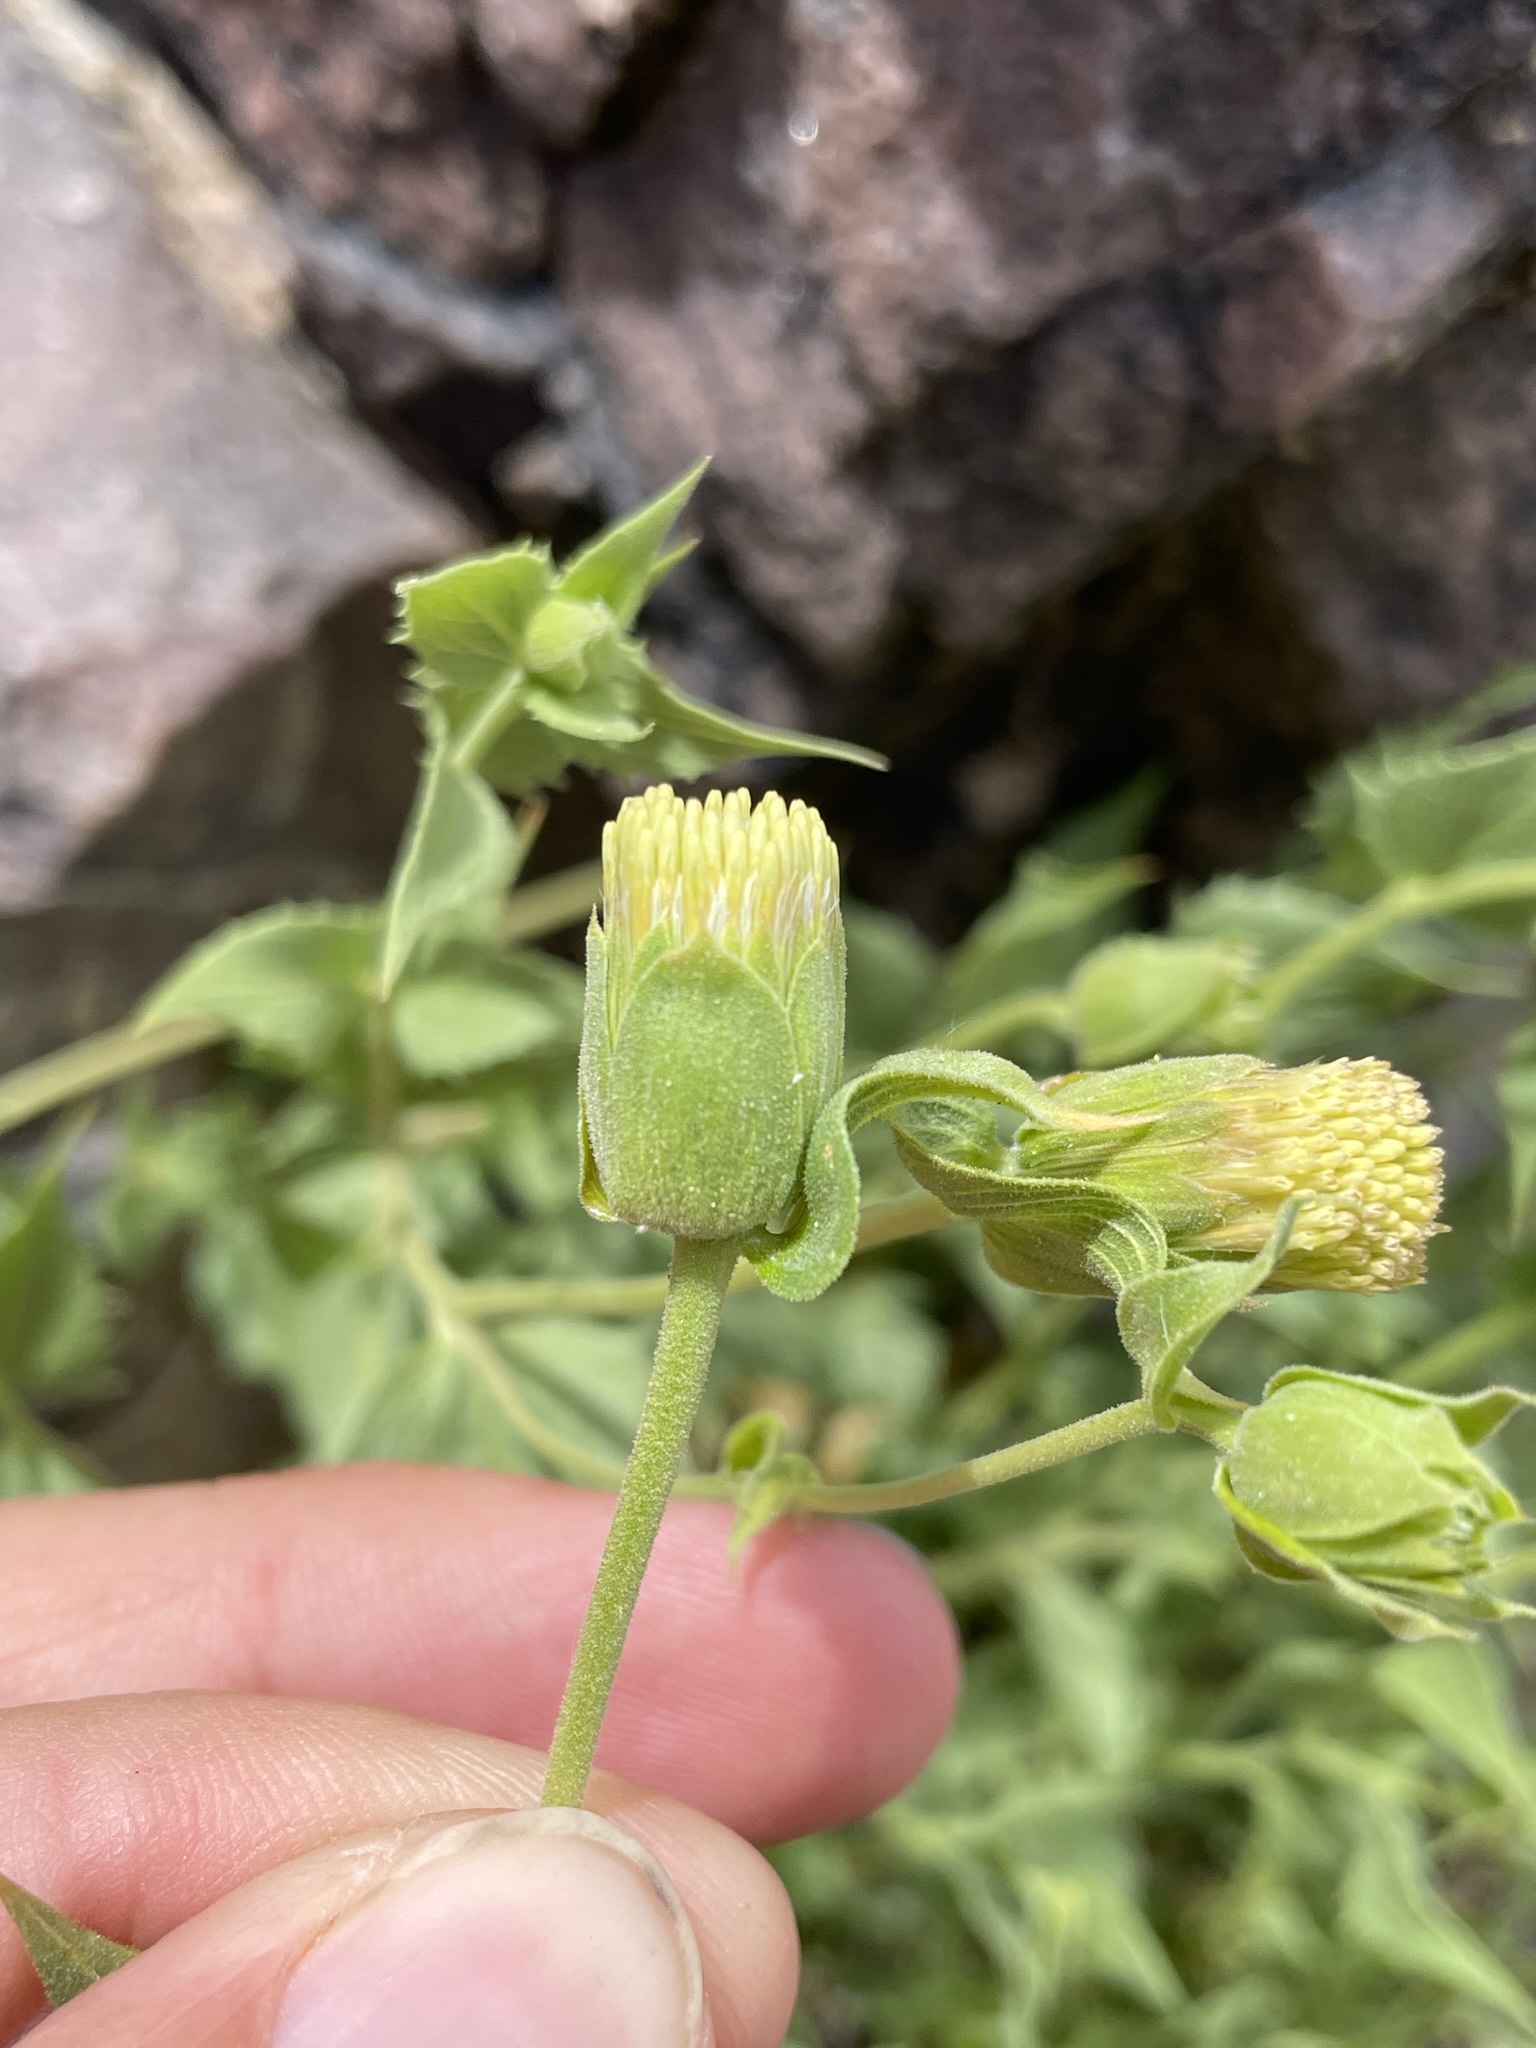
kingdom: Plantae
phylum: Tracheophyta
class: Magnoliopsida
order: Asterales
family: Asteraceae
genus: Brickellia
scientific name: Brickellia atractyloides
